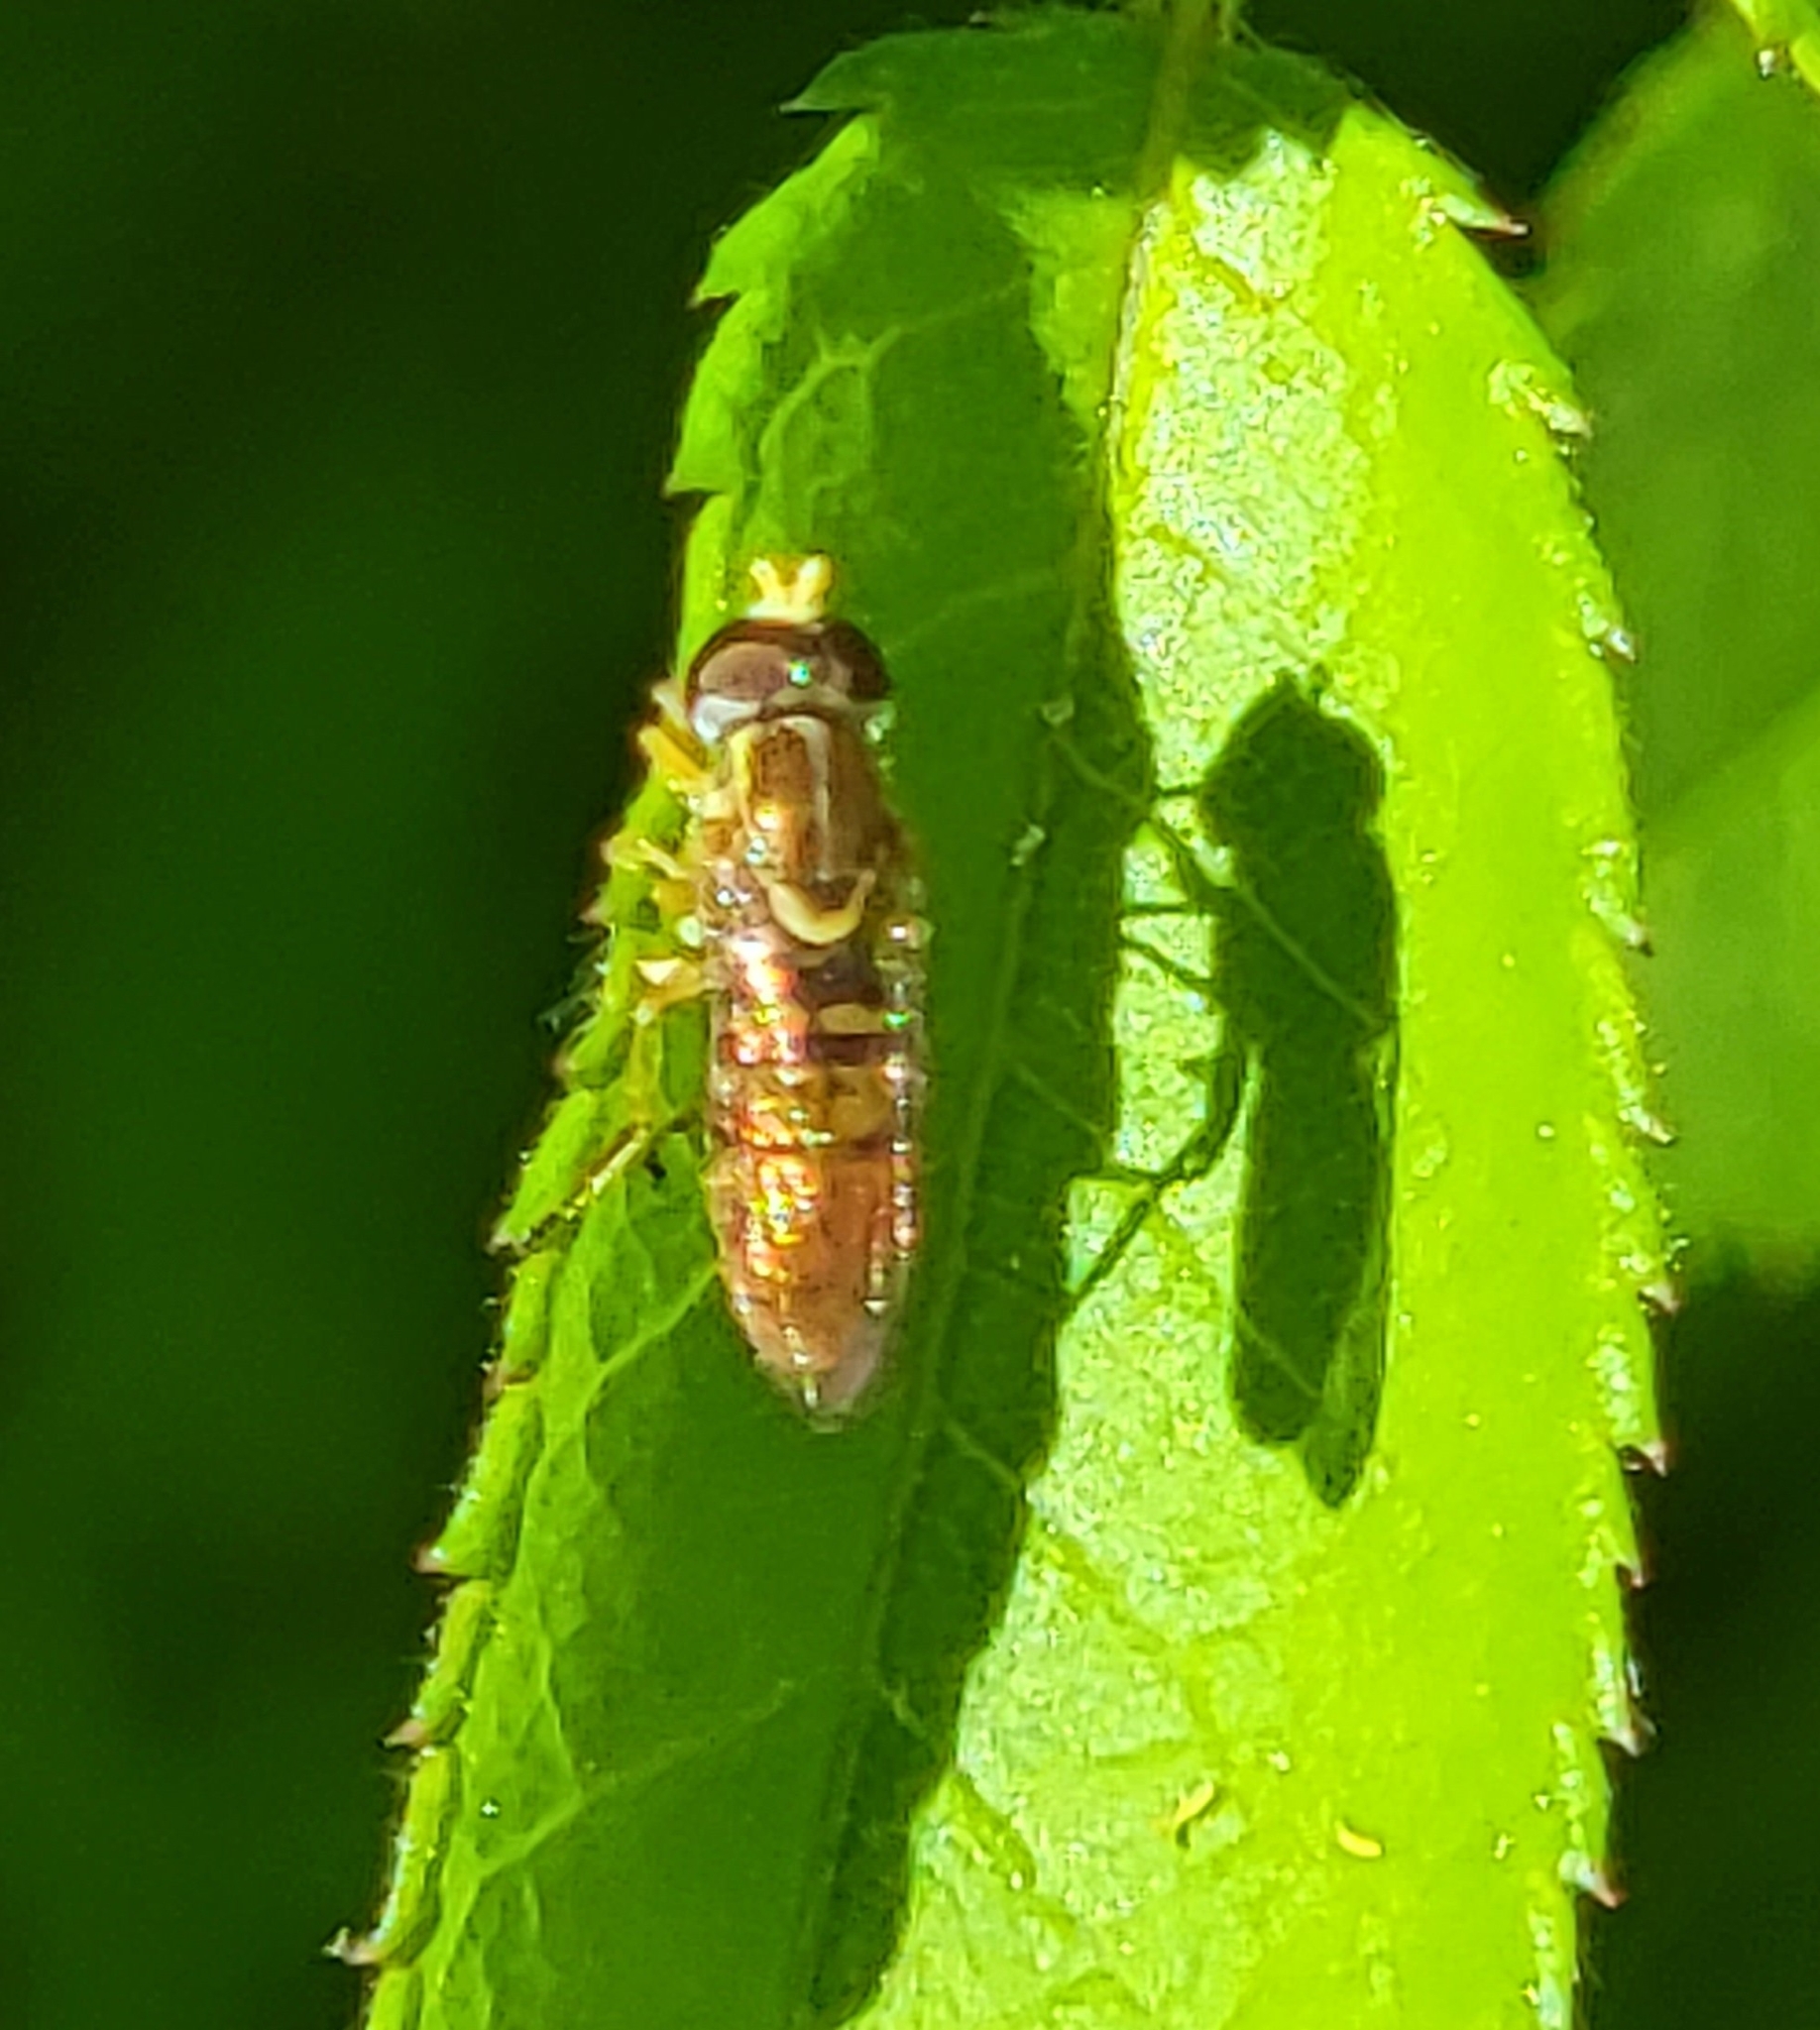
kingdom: Animalia
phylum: Arthropoda
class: Insecta
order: Diptera
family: Syrphidae
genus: Toxomerus
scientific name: Toxomerus marginatus
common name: Syrphid fly
